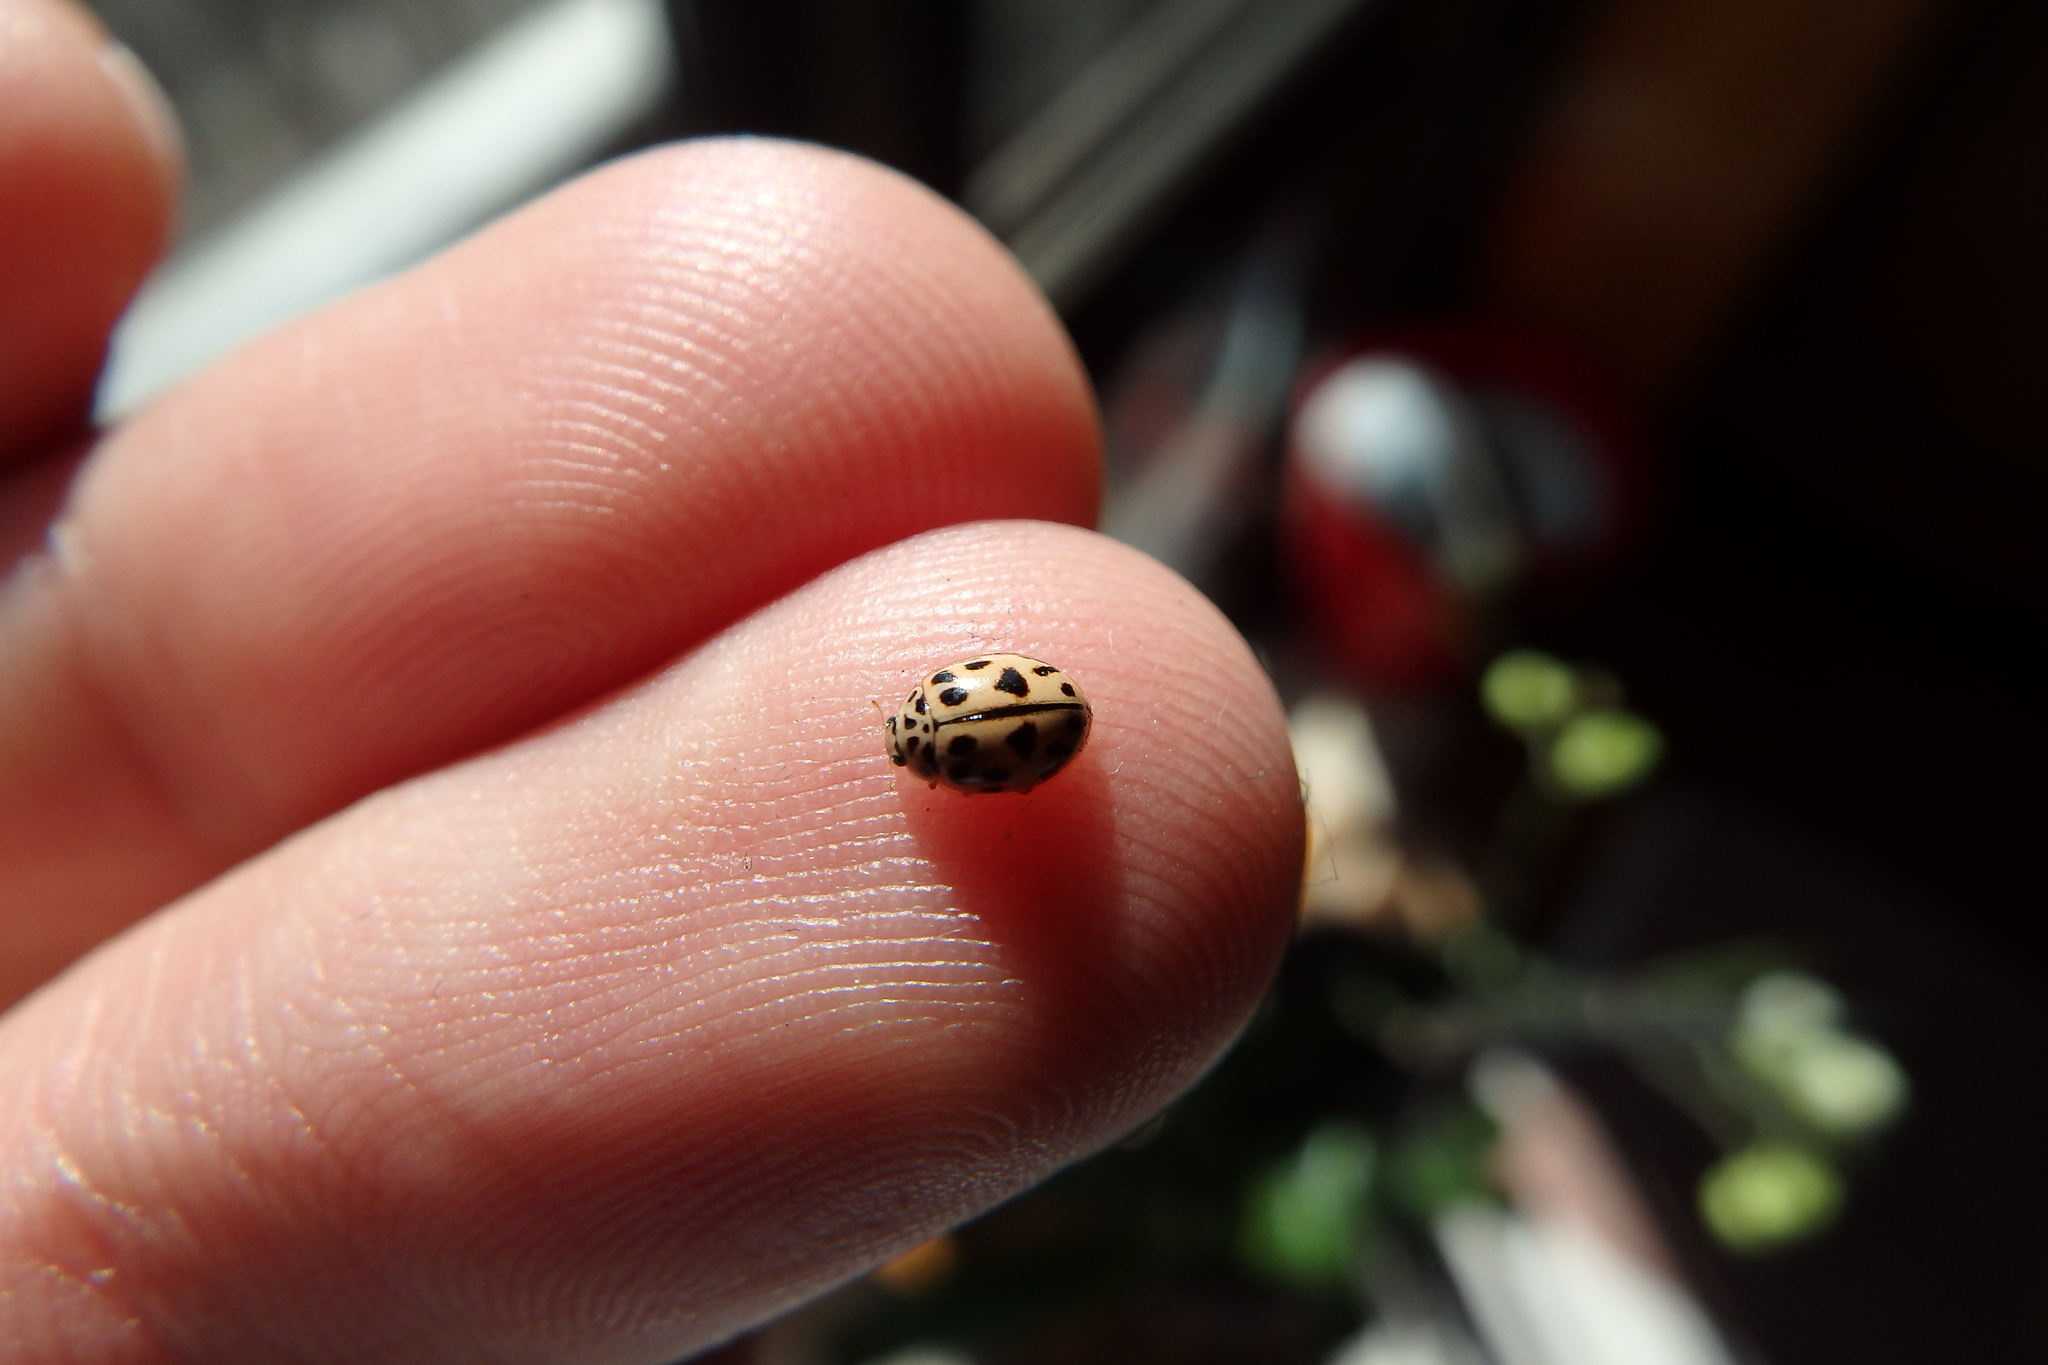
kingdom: Animalia
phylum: Arthropoda
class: Insecta
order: Coleoptera
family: Coccinellidae
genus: Oenopia
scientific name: Oenopia conglobata
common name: Ladybird beetle
